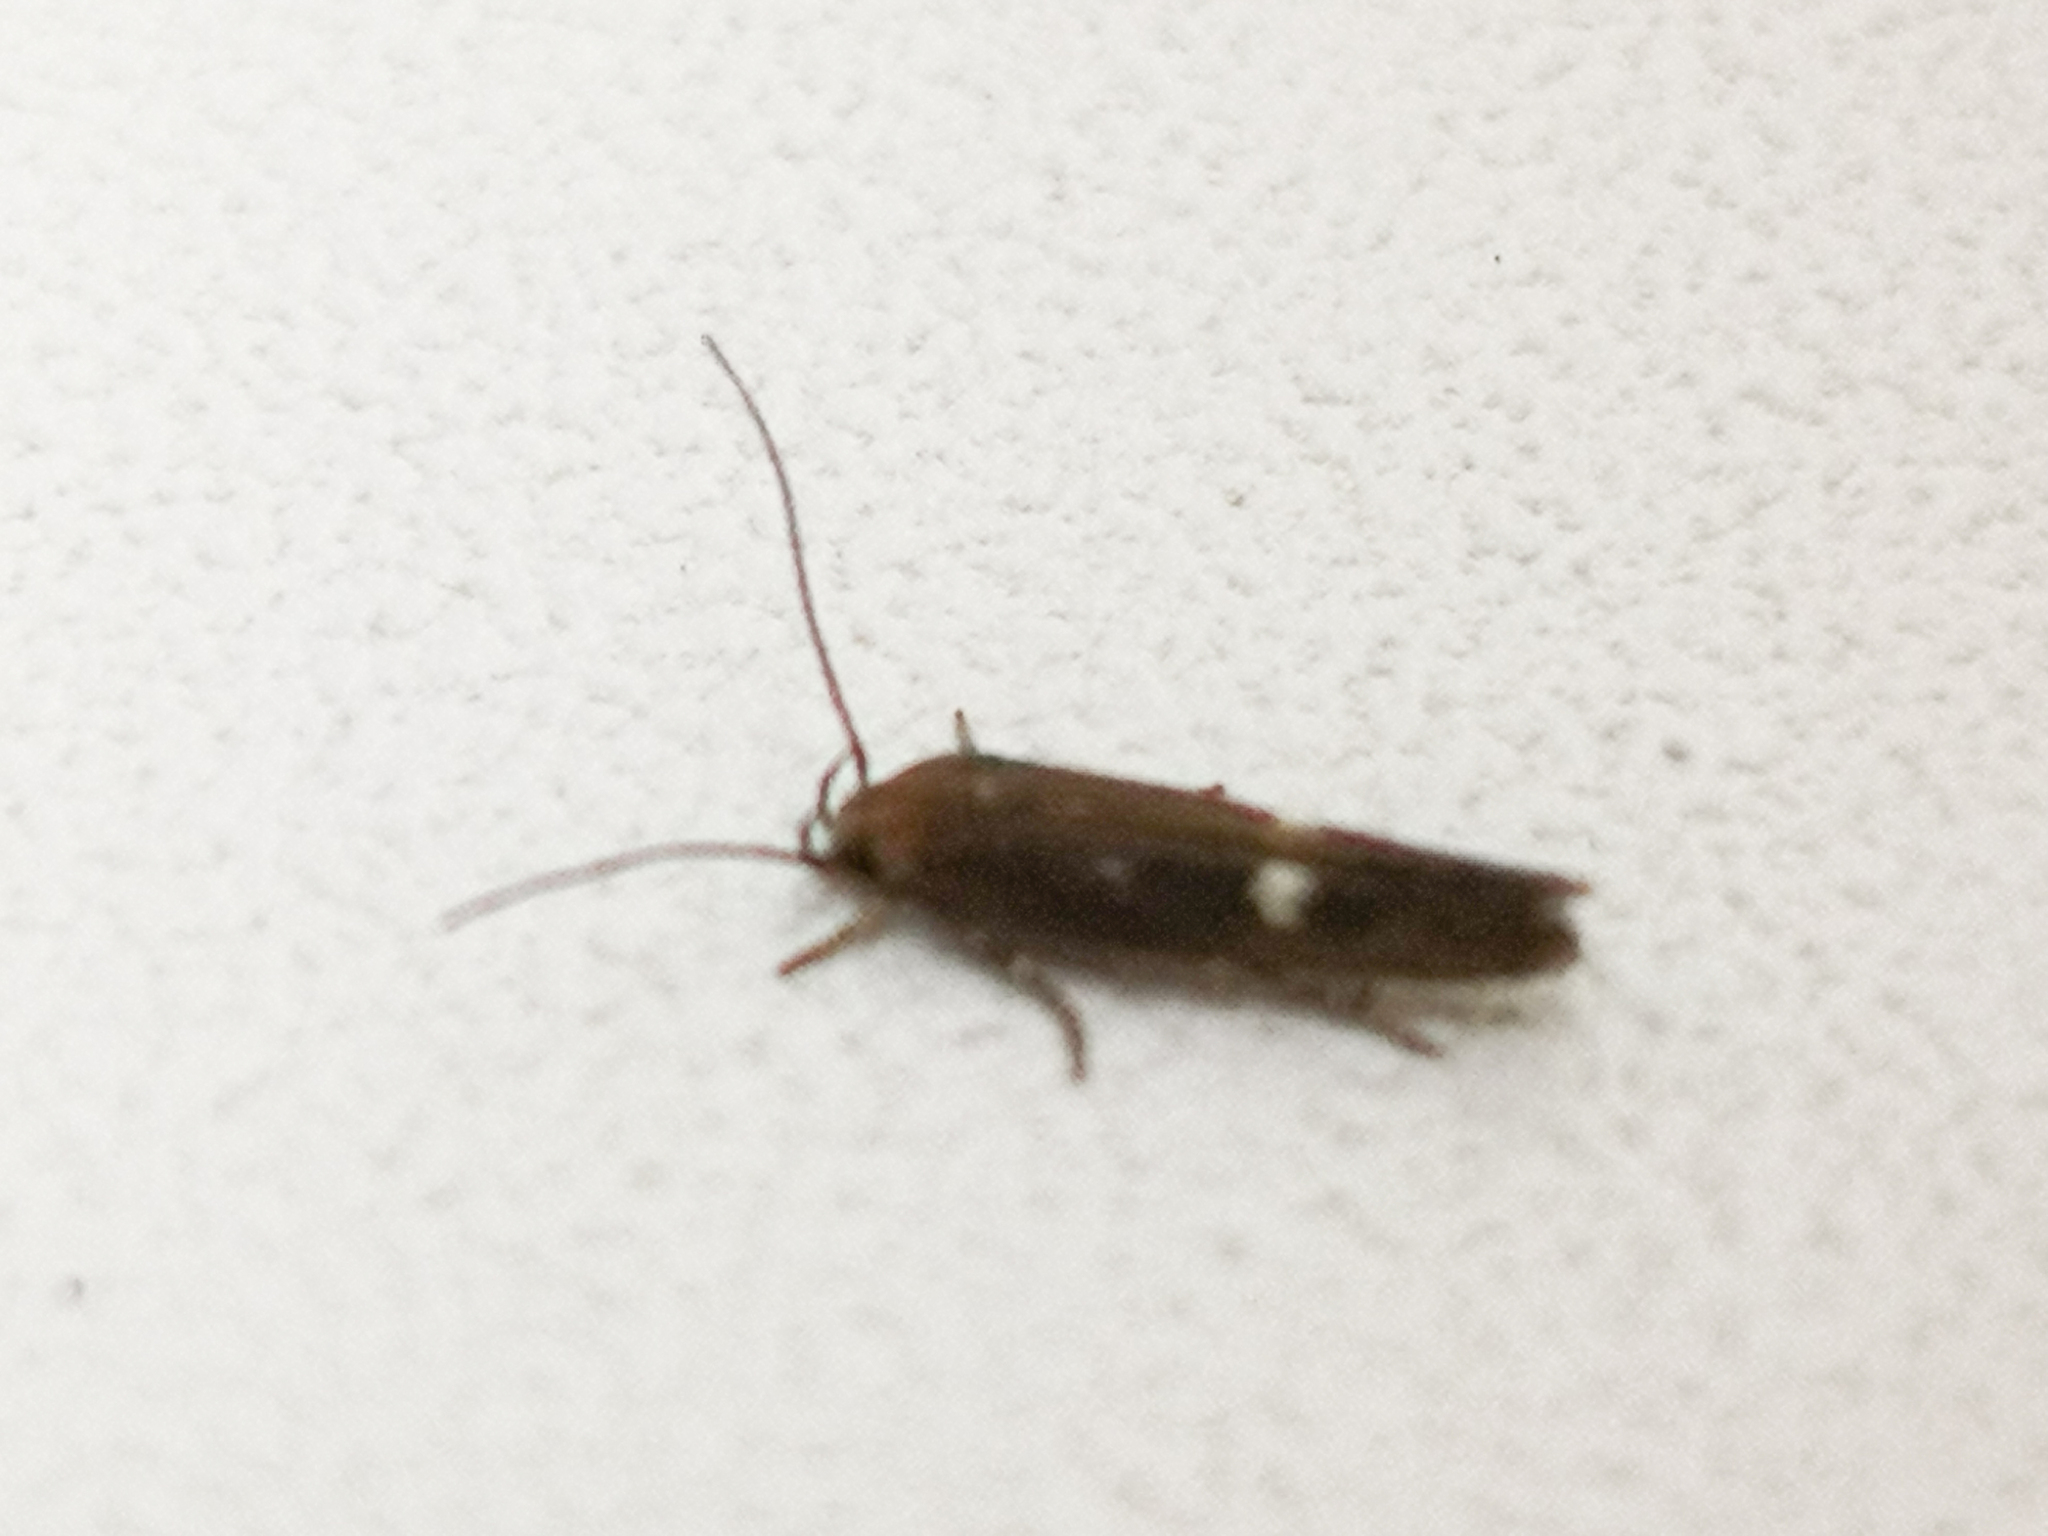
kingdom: Animalia
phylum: Arthropoda
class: Insecta
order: Lepidoptera
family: Momphidae
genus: Mompha
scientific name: Mompha langiella
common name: Clouded cosmet
